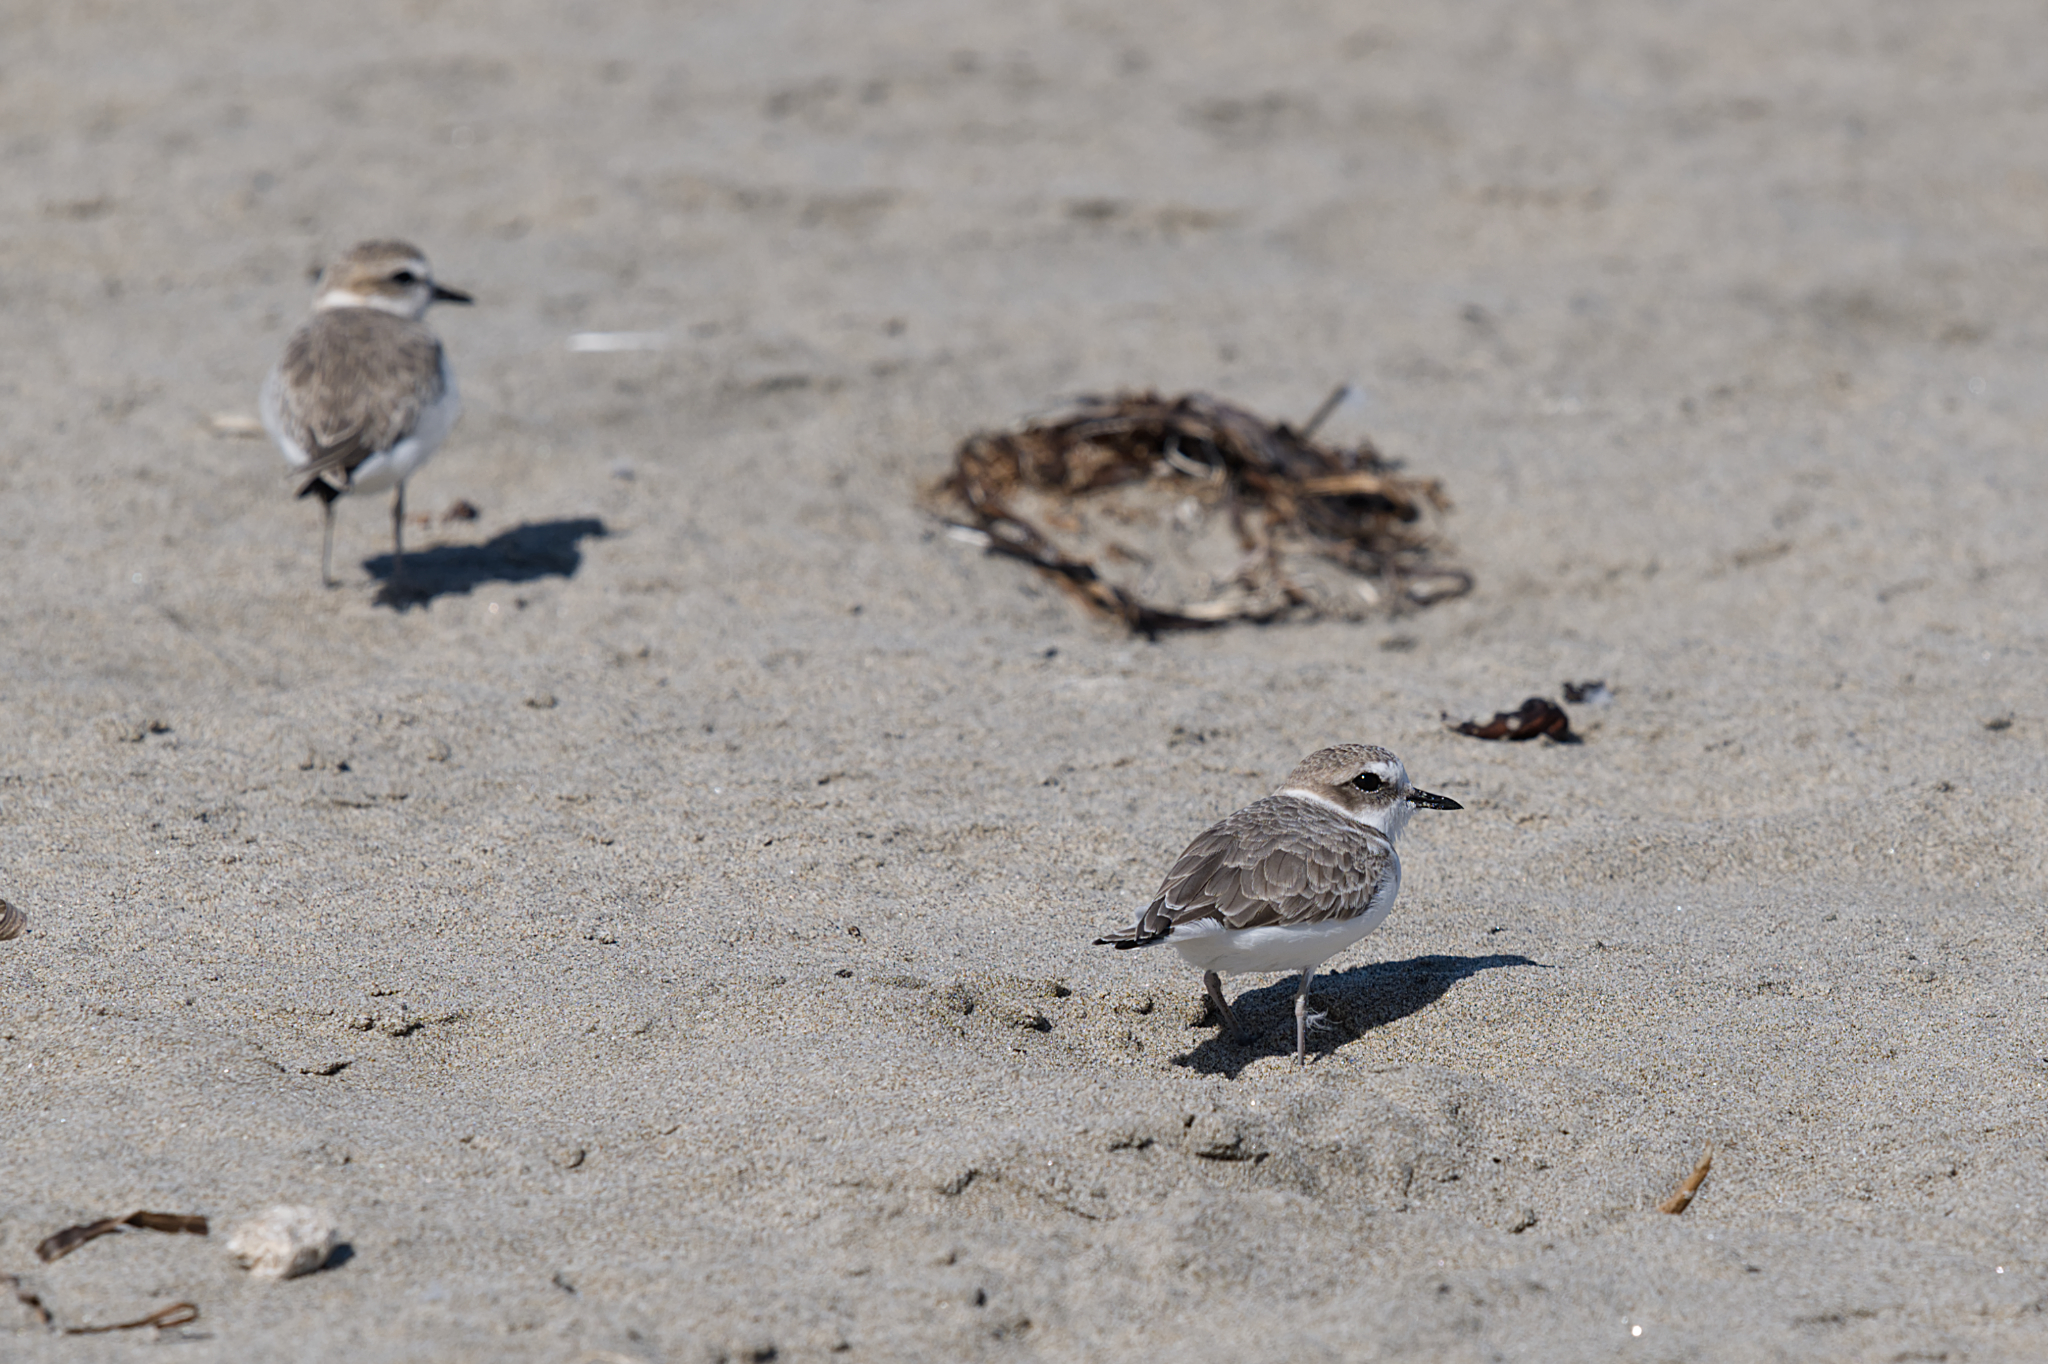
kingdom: Animalia
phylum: Chordata
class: Aves
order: Charadriiformes
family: Charadriidae
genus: Anarhynchus
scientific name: Anarhynchus
